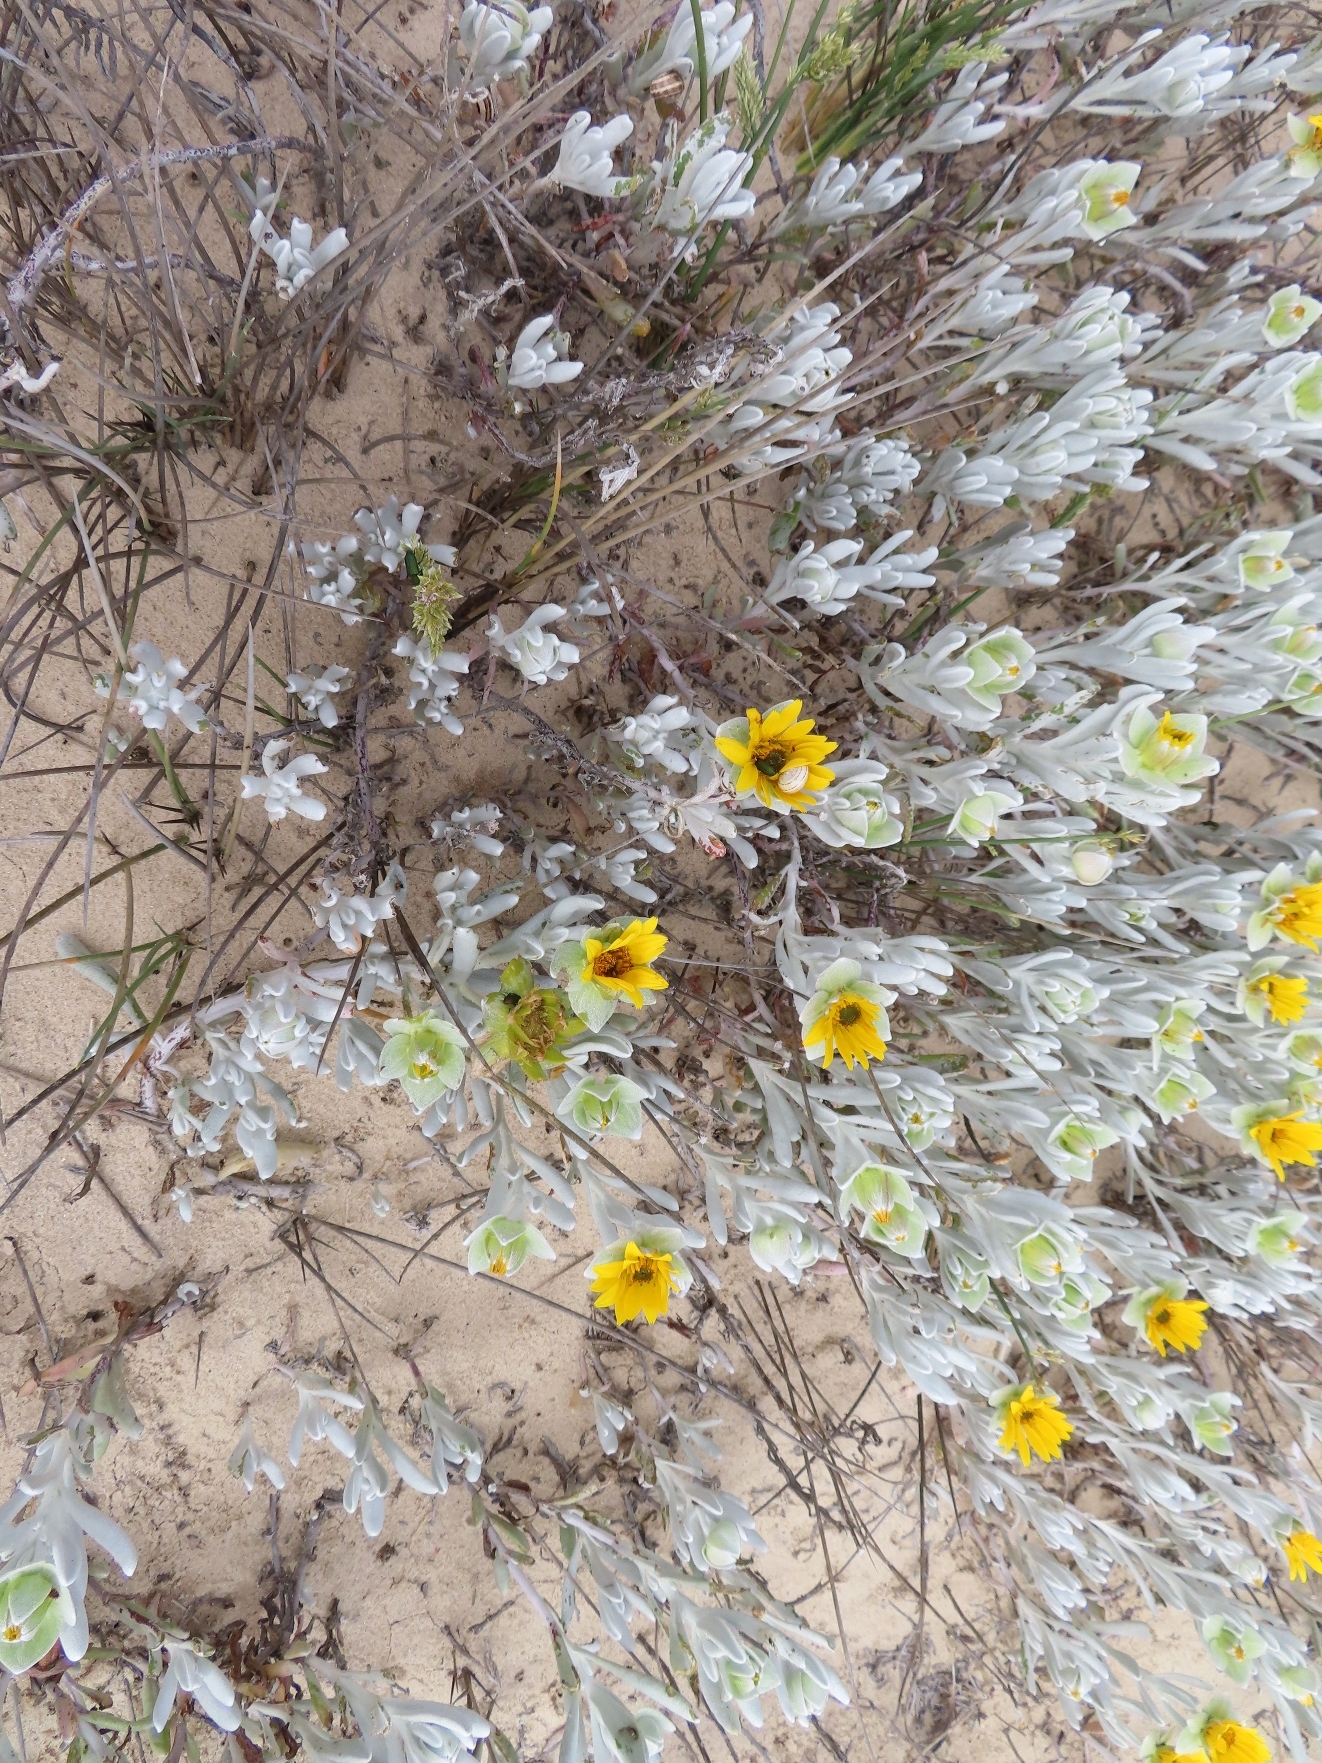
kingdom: Plantae
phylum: Tracheophyta
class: Magnoliopsida
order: Asterales
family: Asteraceae
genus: Didelta
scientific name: Didelta carnosa
